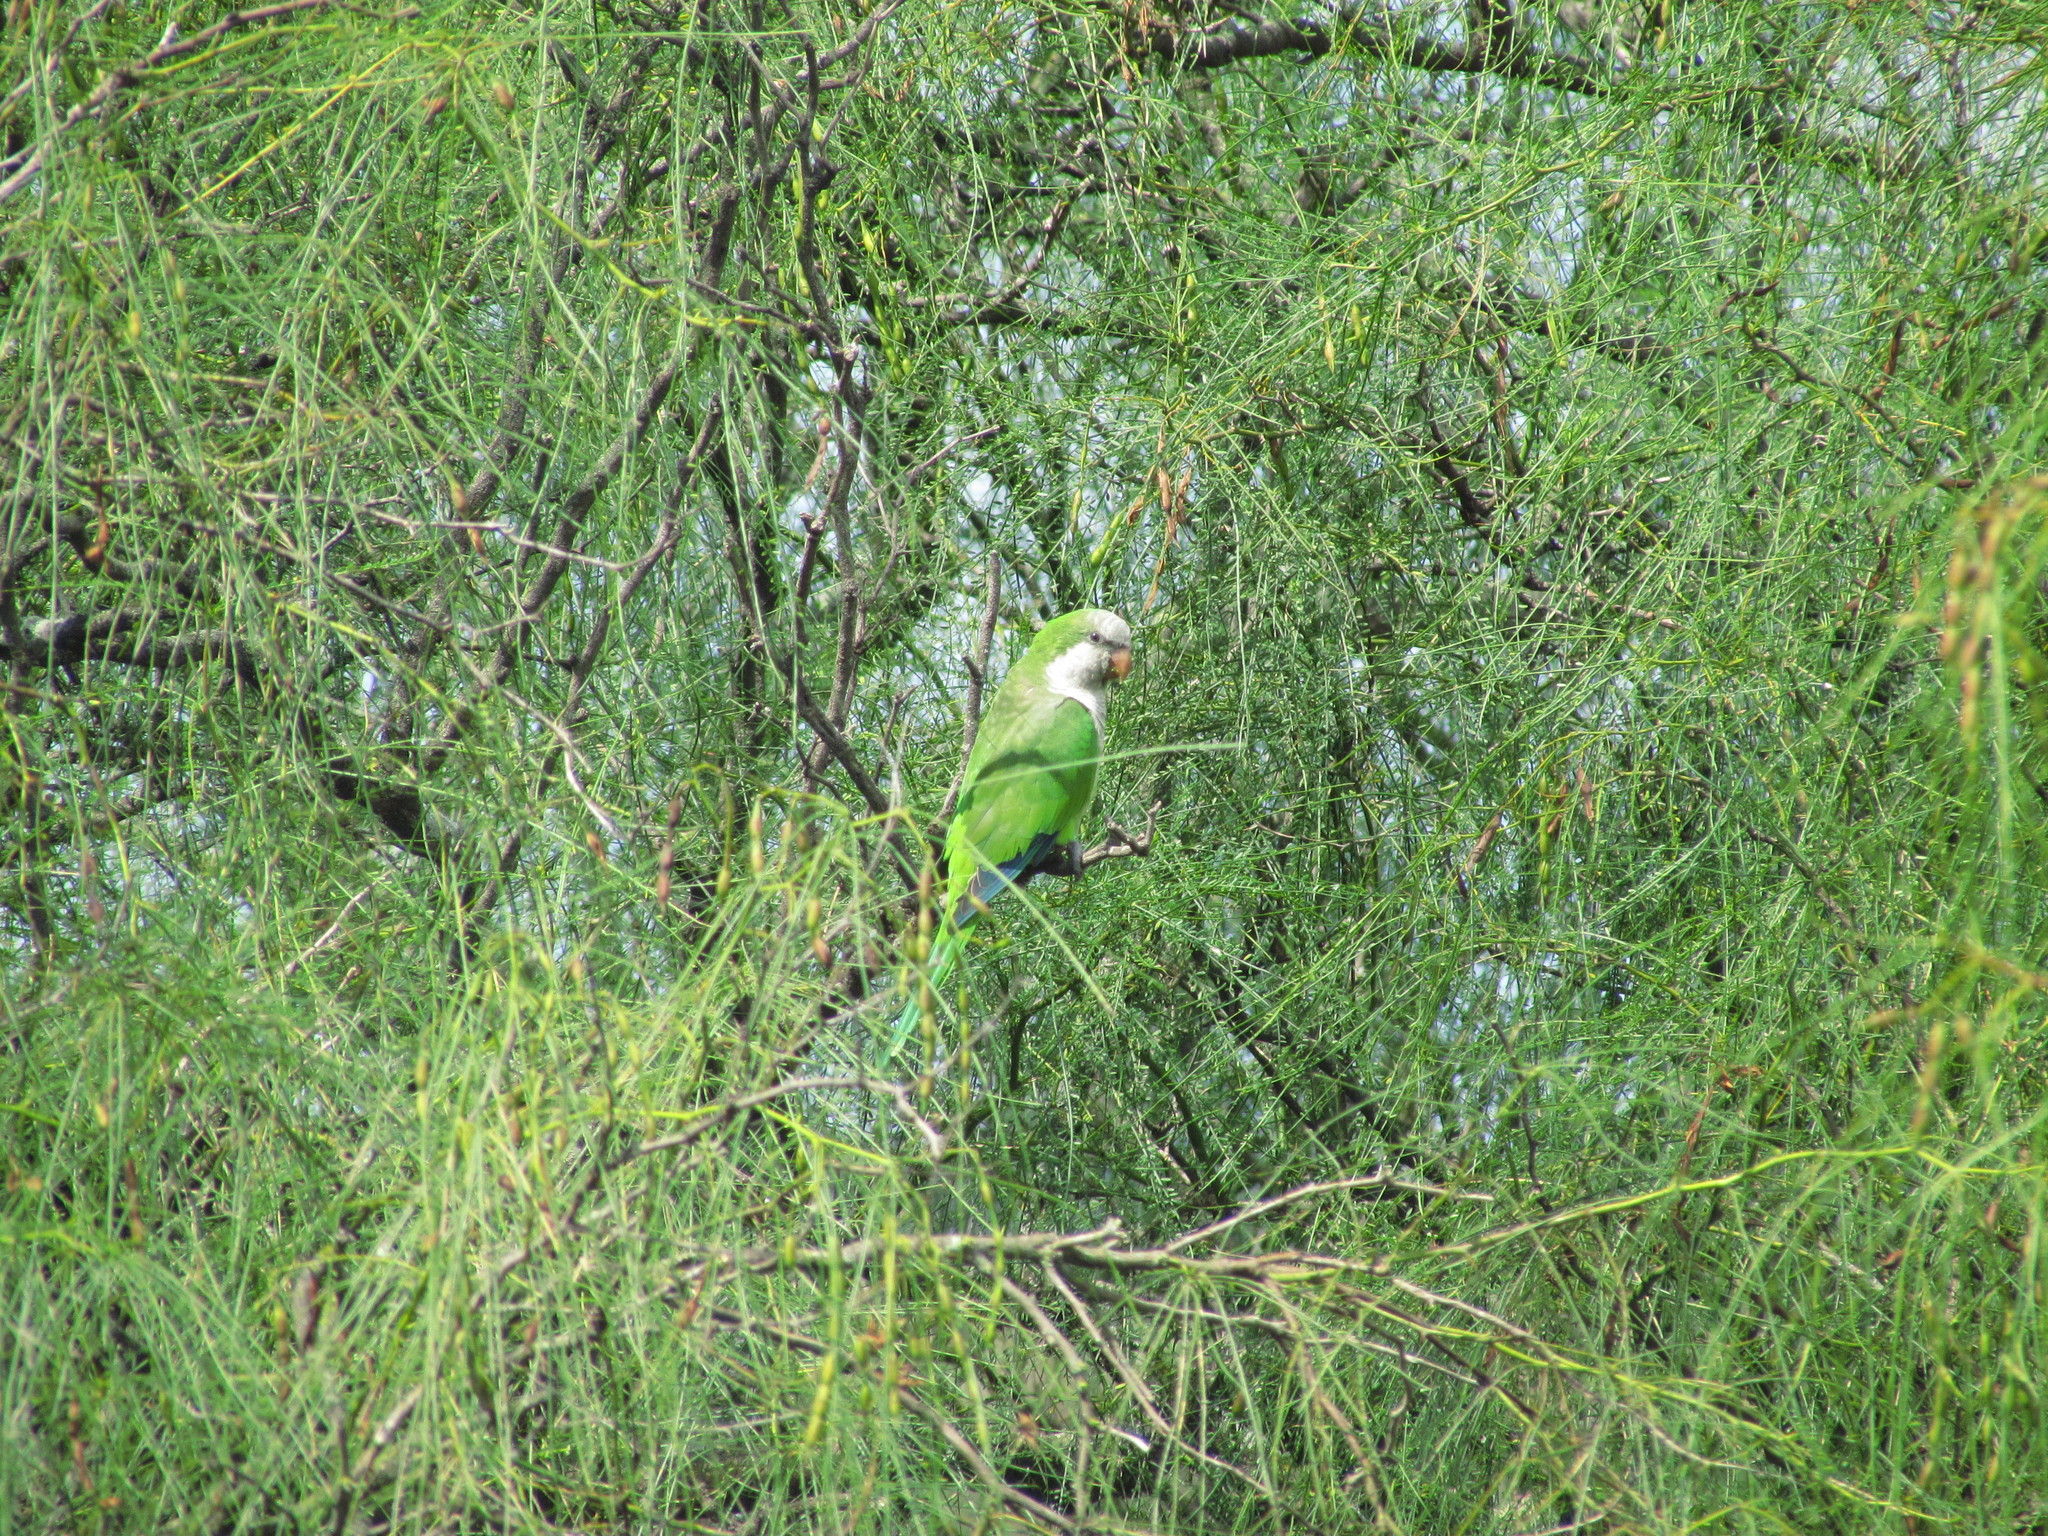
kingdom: Animalia
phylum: Chordata
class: Aves
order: Psittaciformes
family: Psittacidae
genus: Myiopsitta
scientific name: Myiopsitta monachus
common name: Monk parakeet
